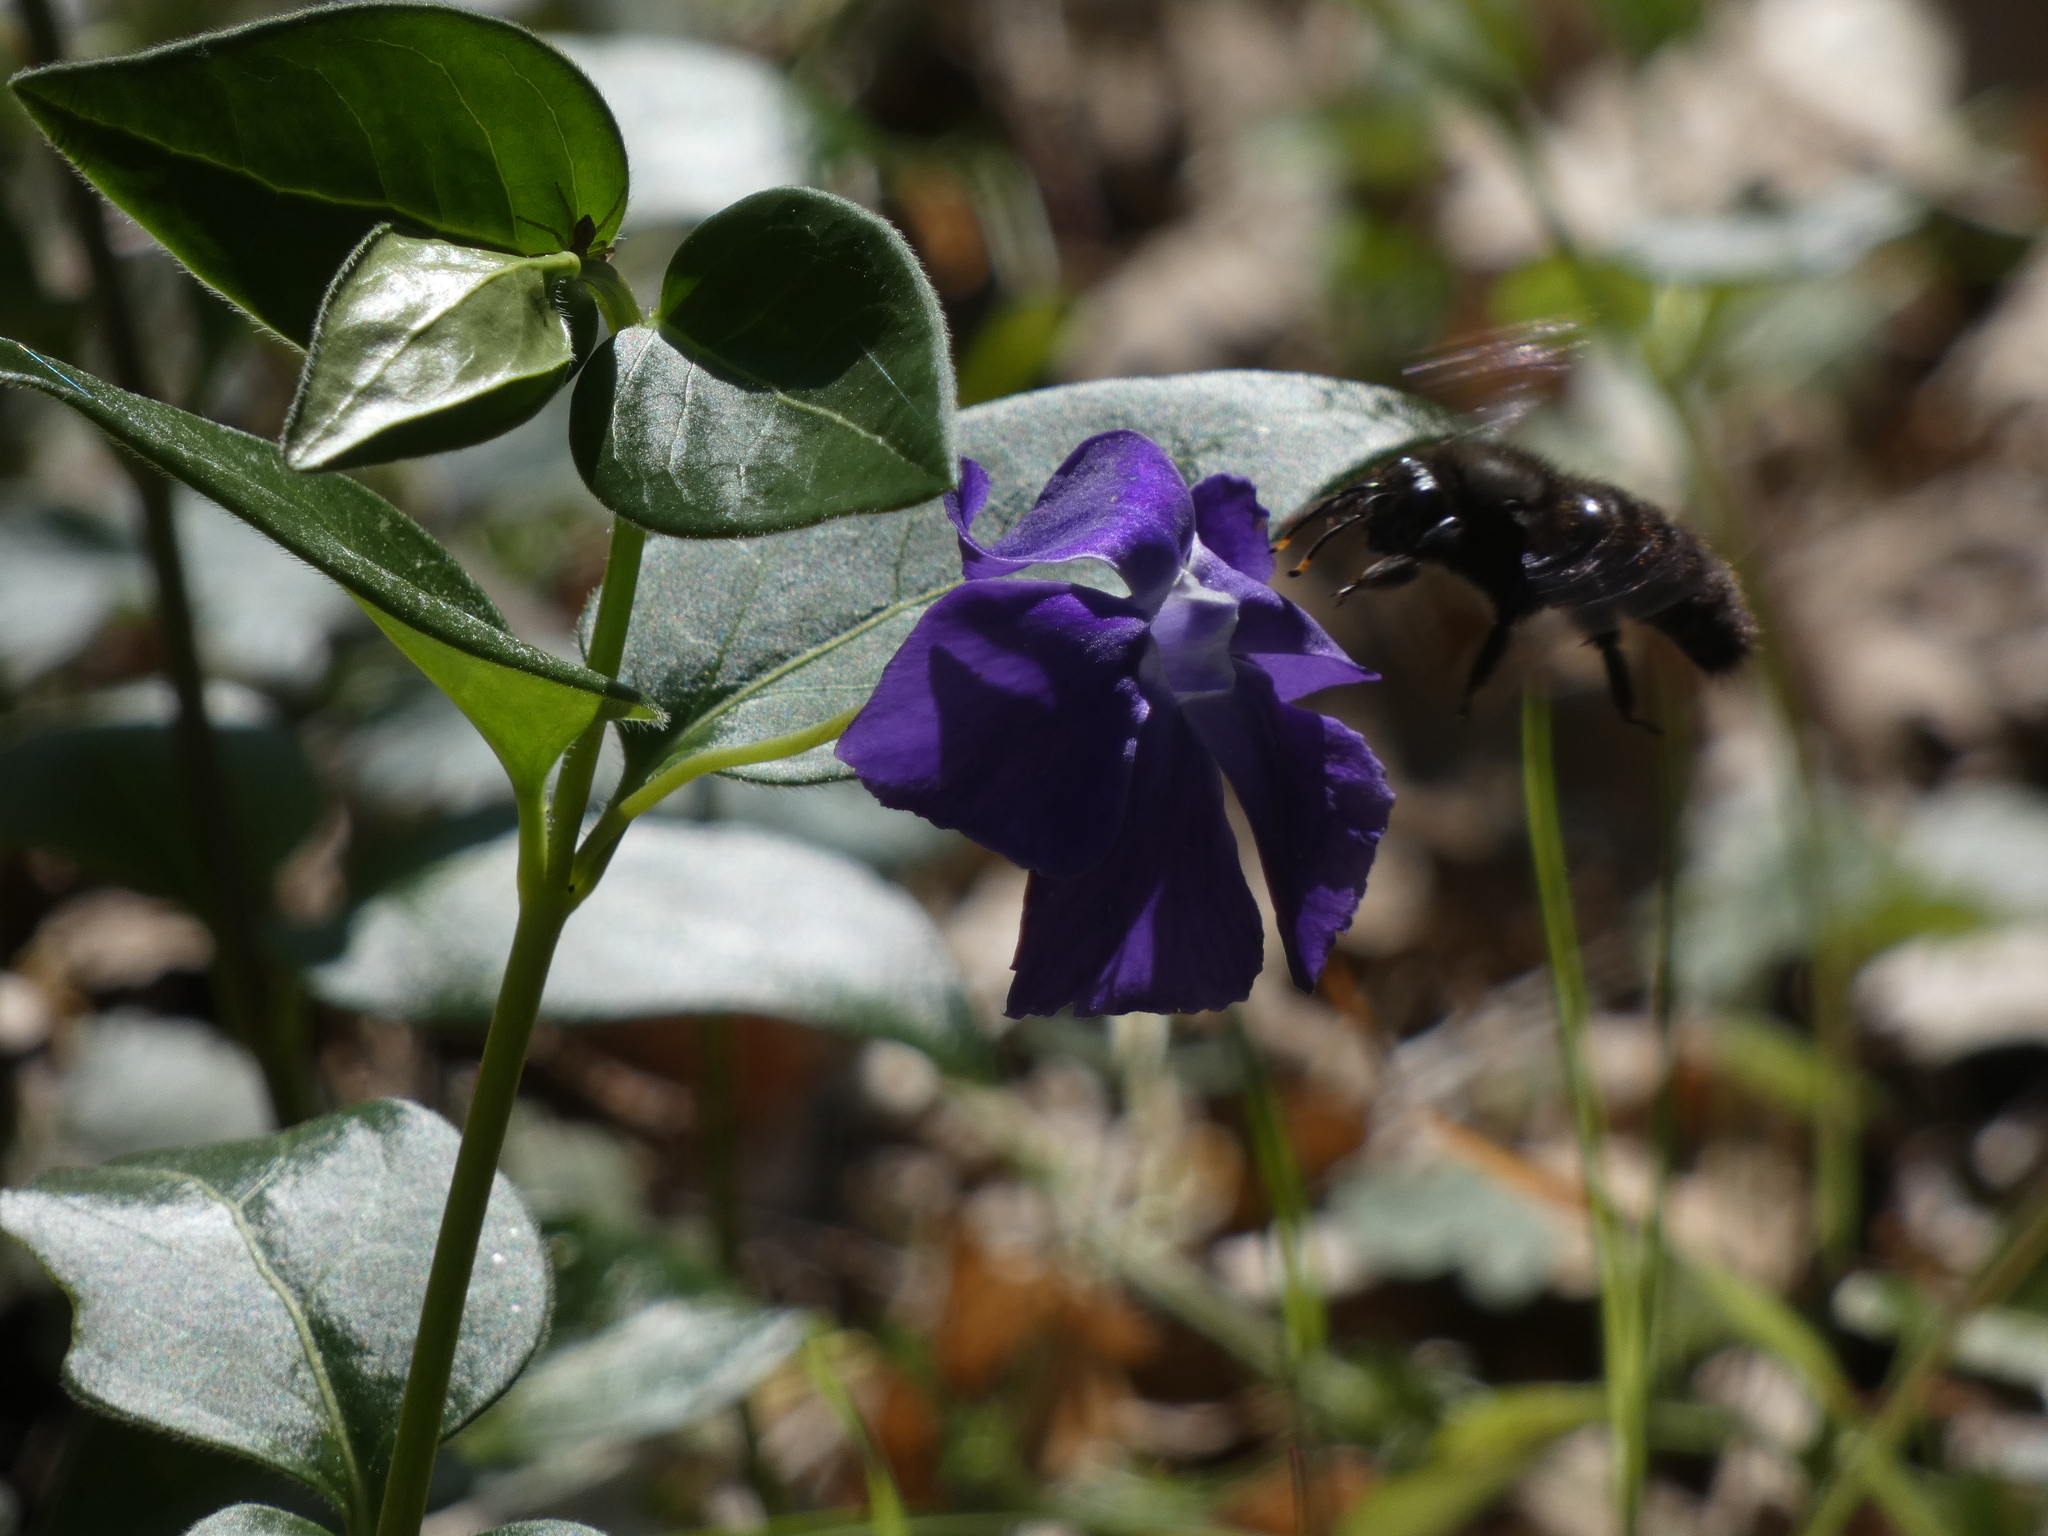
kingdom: Animalia
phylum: Arthropoda
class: Insecta
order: Hymenoptera
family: Apidae
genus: Xylocopa
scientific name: Xylocopa violacea
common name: Violet carpenter bee
